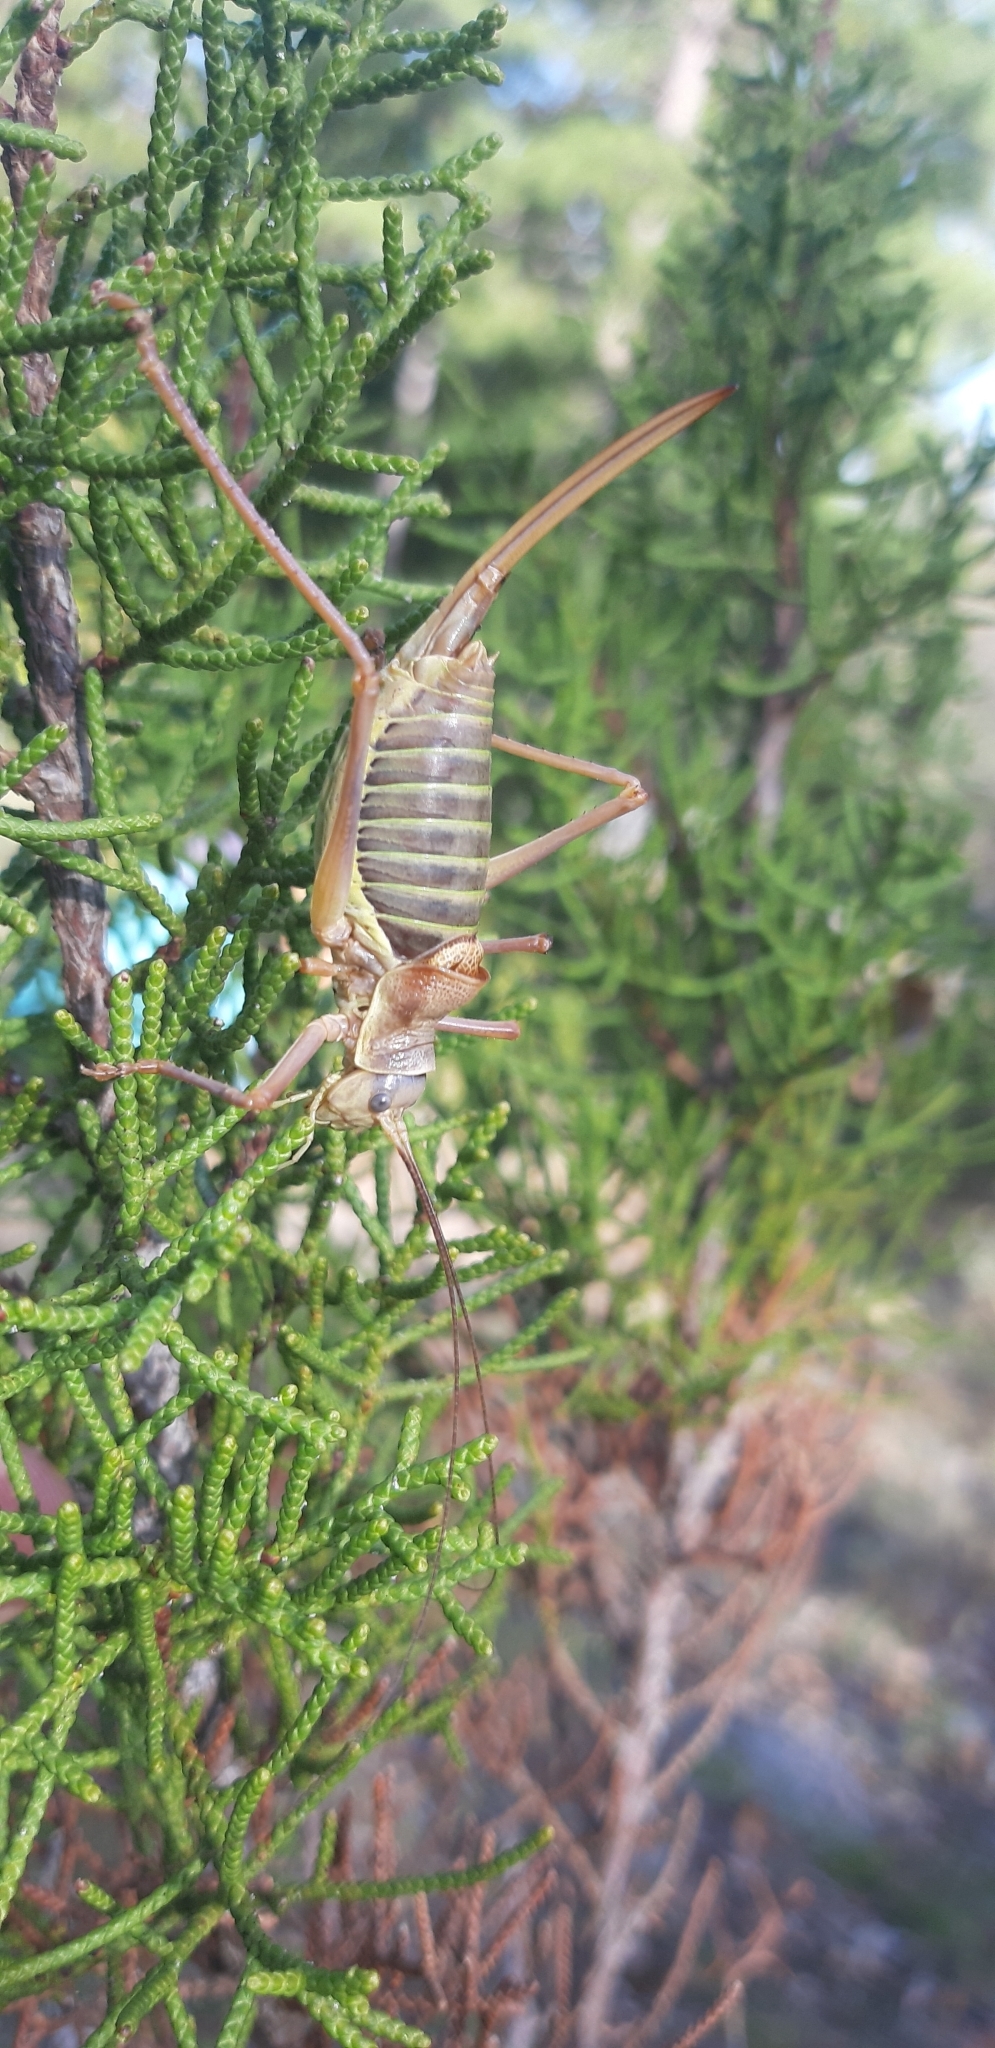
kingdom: Animalia
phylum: Arthropoda
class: Insecta
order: Orthoptera
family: Tettigoniidae
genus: Ephippiger
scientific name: Ephippiger diurnus
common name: Western saddle bush-cricket
